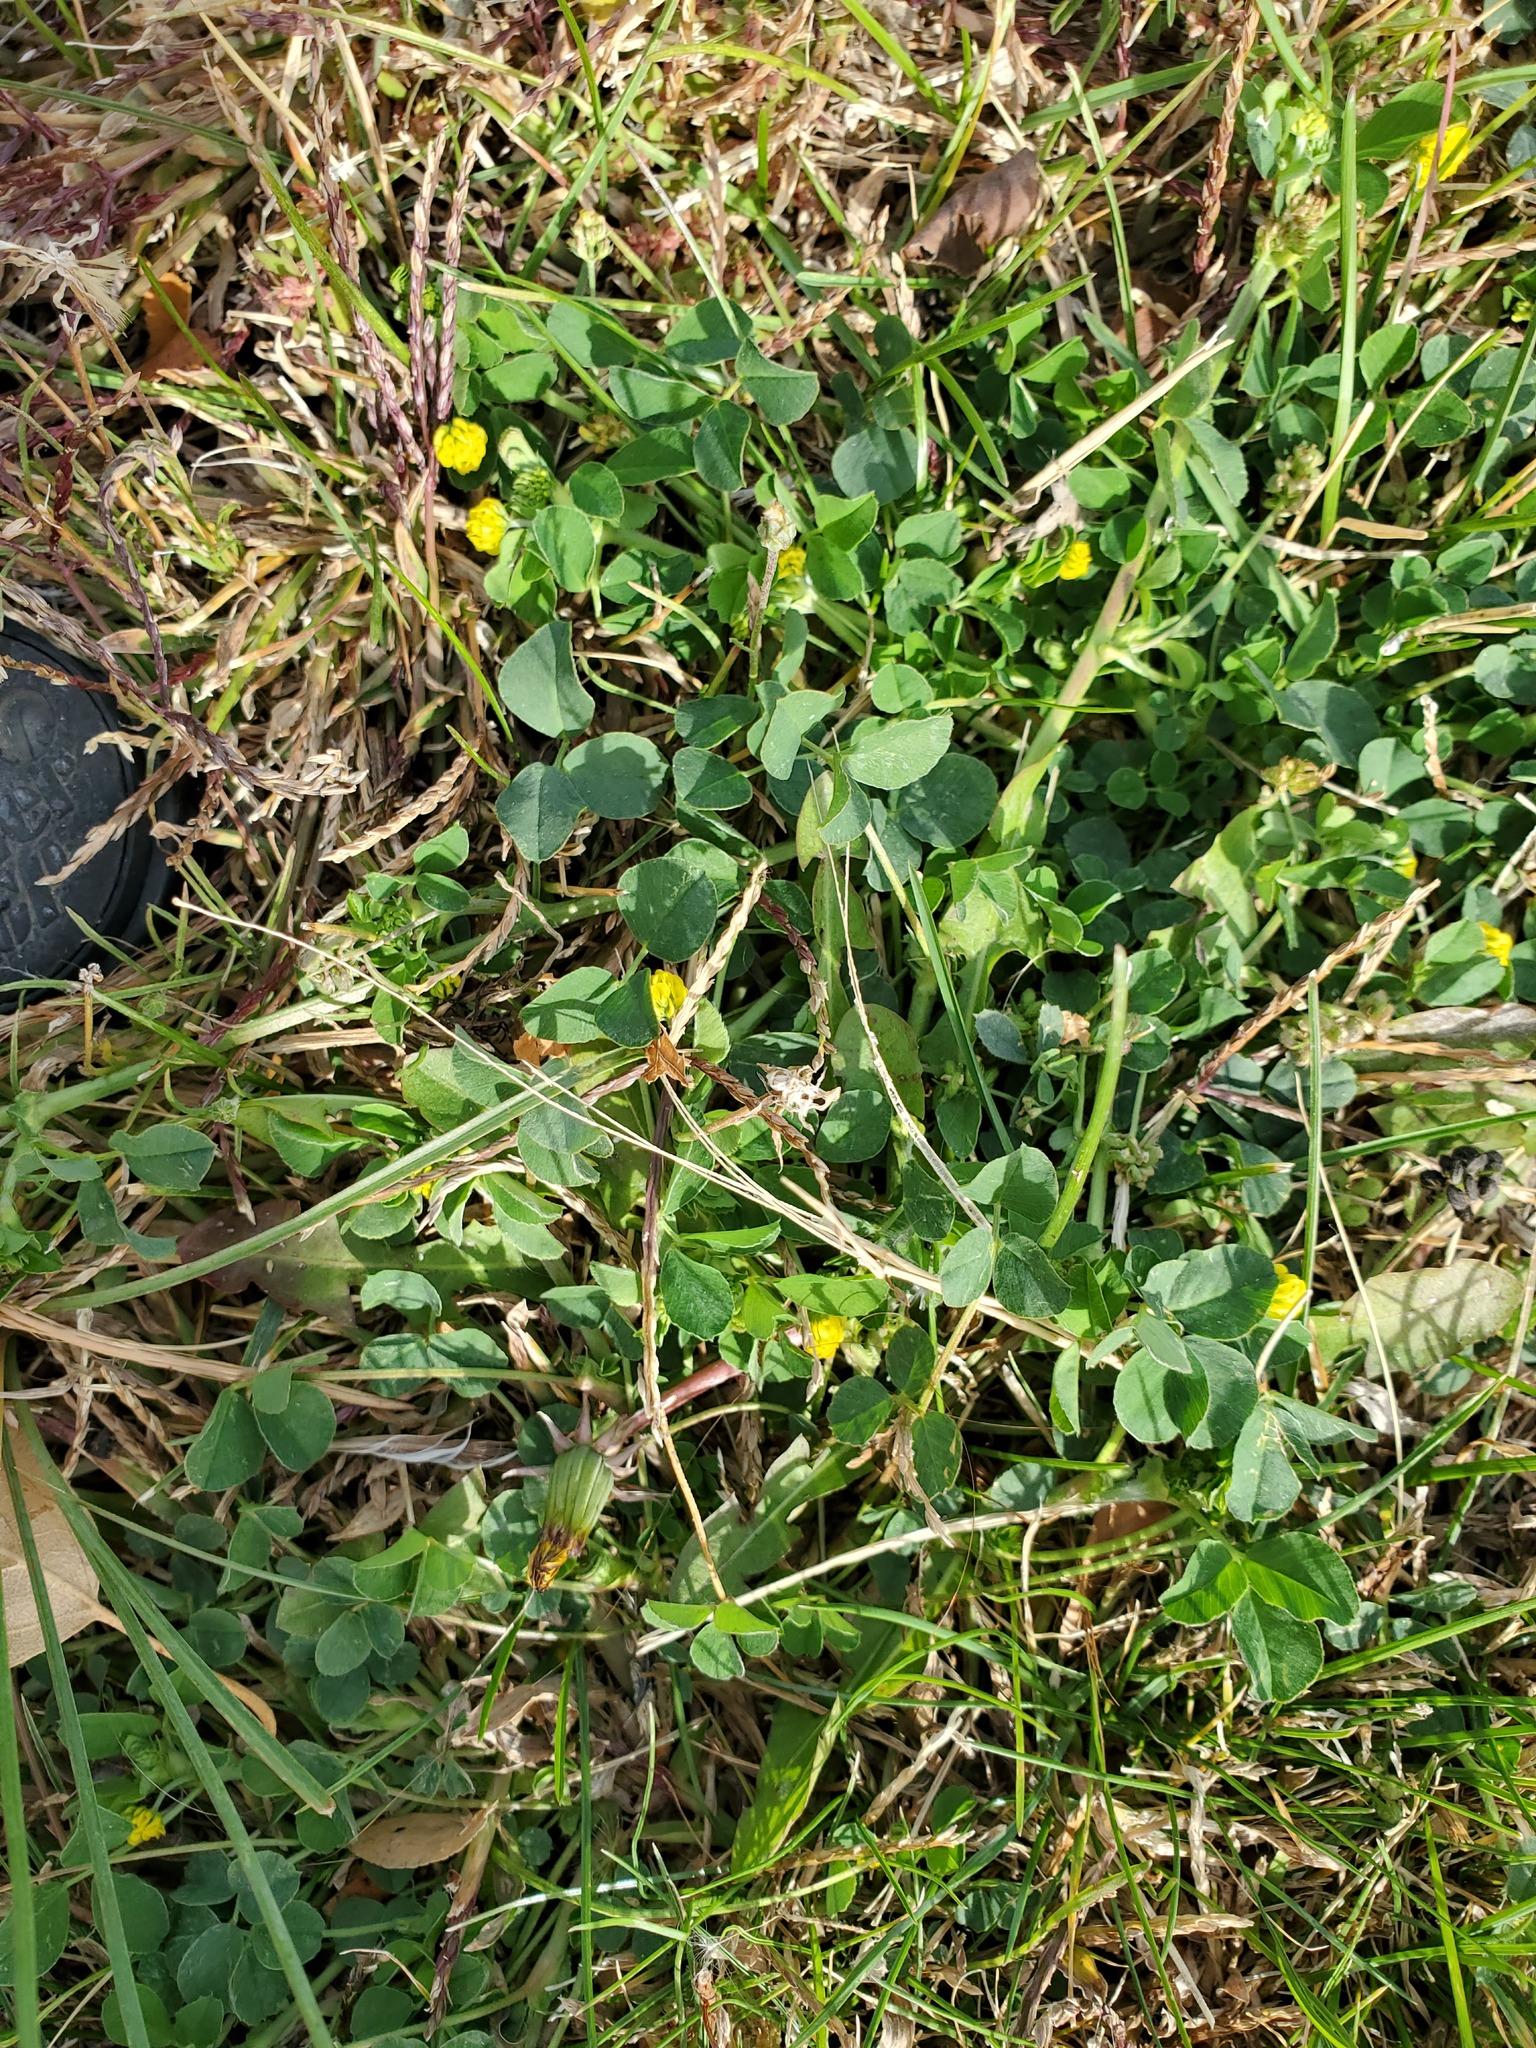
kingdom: Plantae
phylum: Tracheophyta
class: Magnoliopsida
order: Fabales
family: Fabaceae
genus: Medicago
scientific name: Medicago lupulina
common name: Black medick
